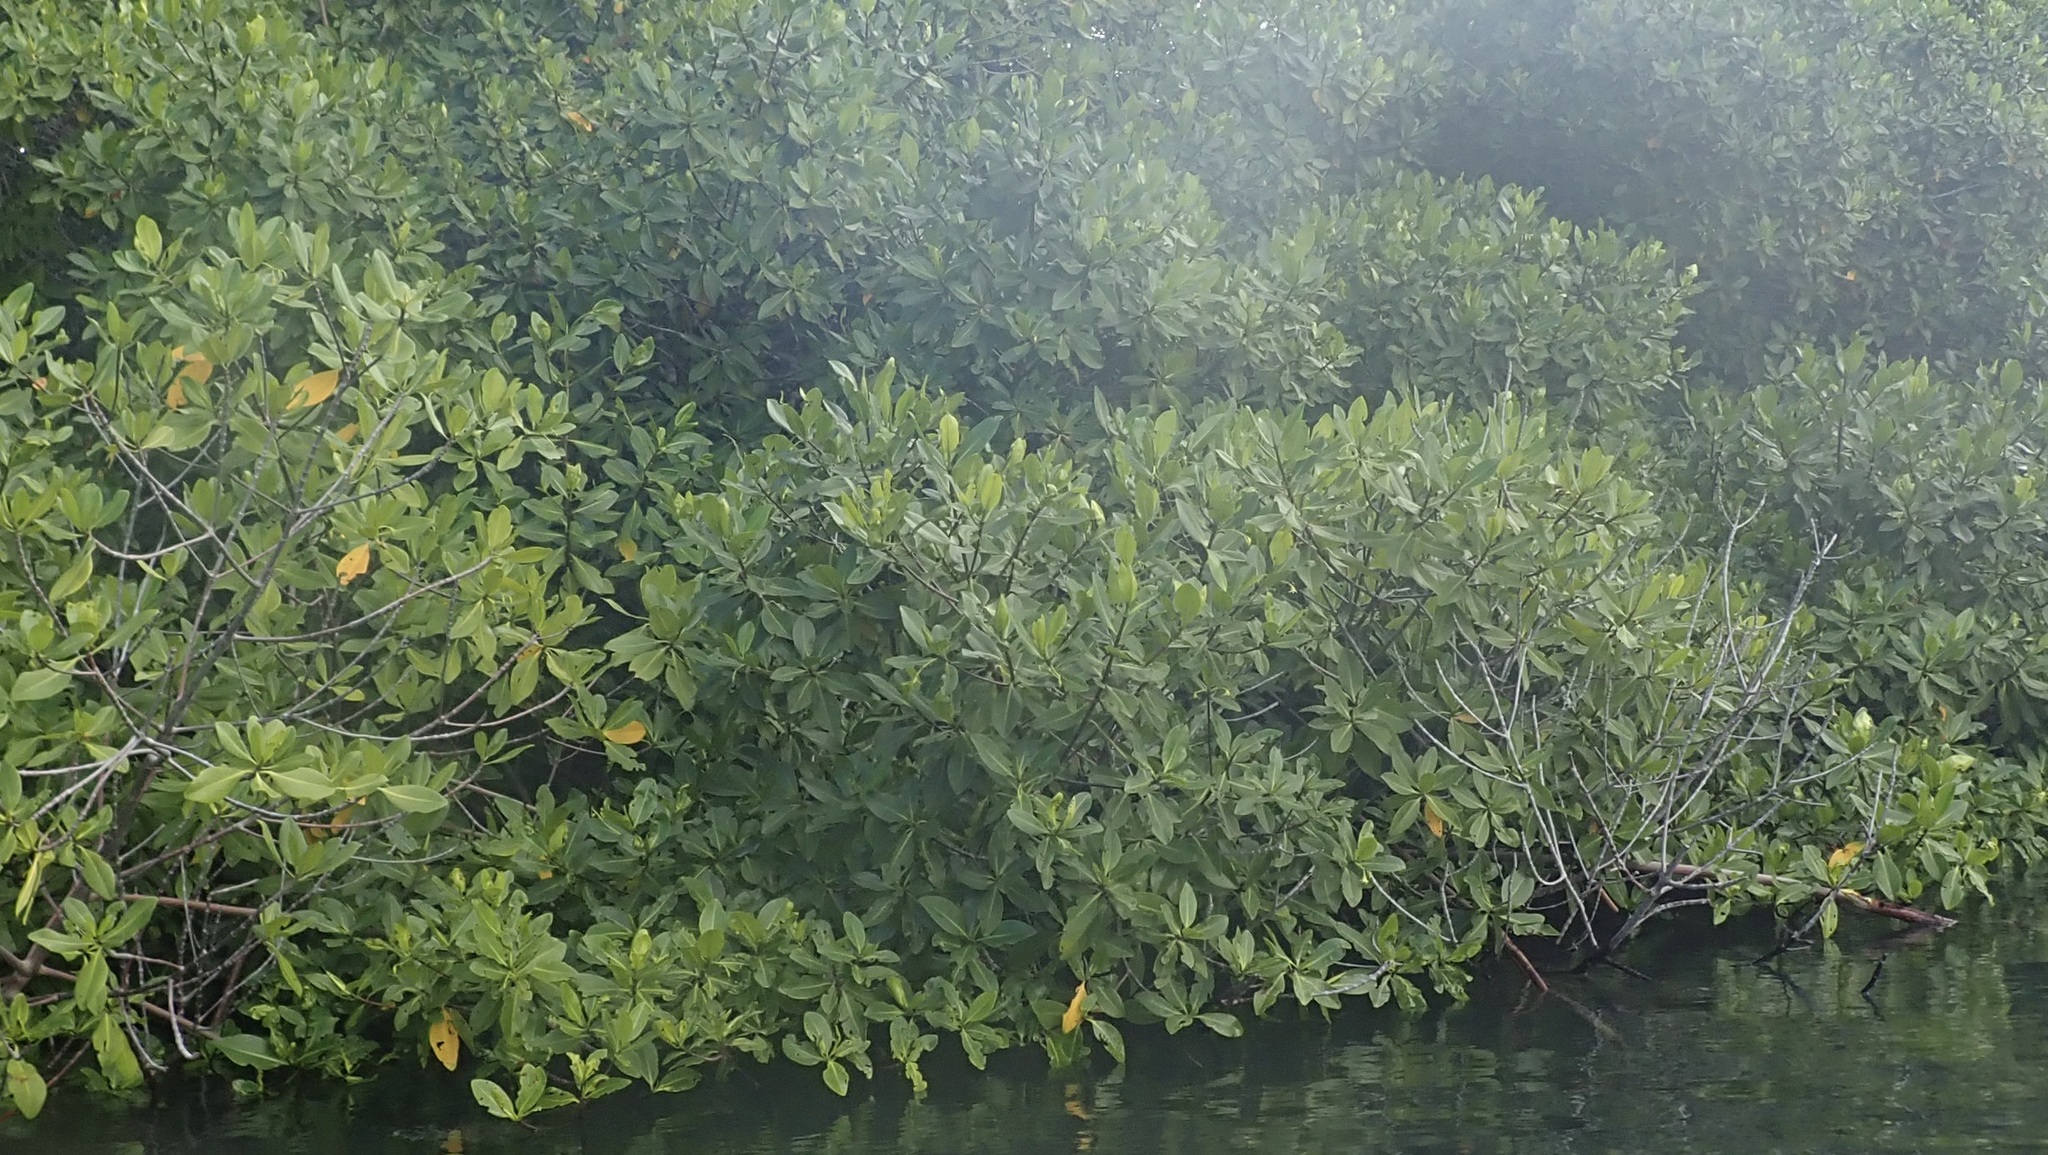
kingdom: Plantae
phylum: Tracheophyta
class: Magnoliopsida
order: Malpighiales
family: Rhizophoraceae
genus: Rhizophora
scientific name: Rhizophora mangle
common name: Red mangrove
